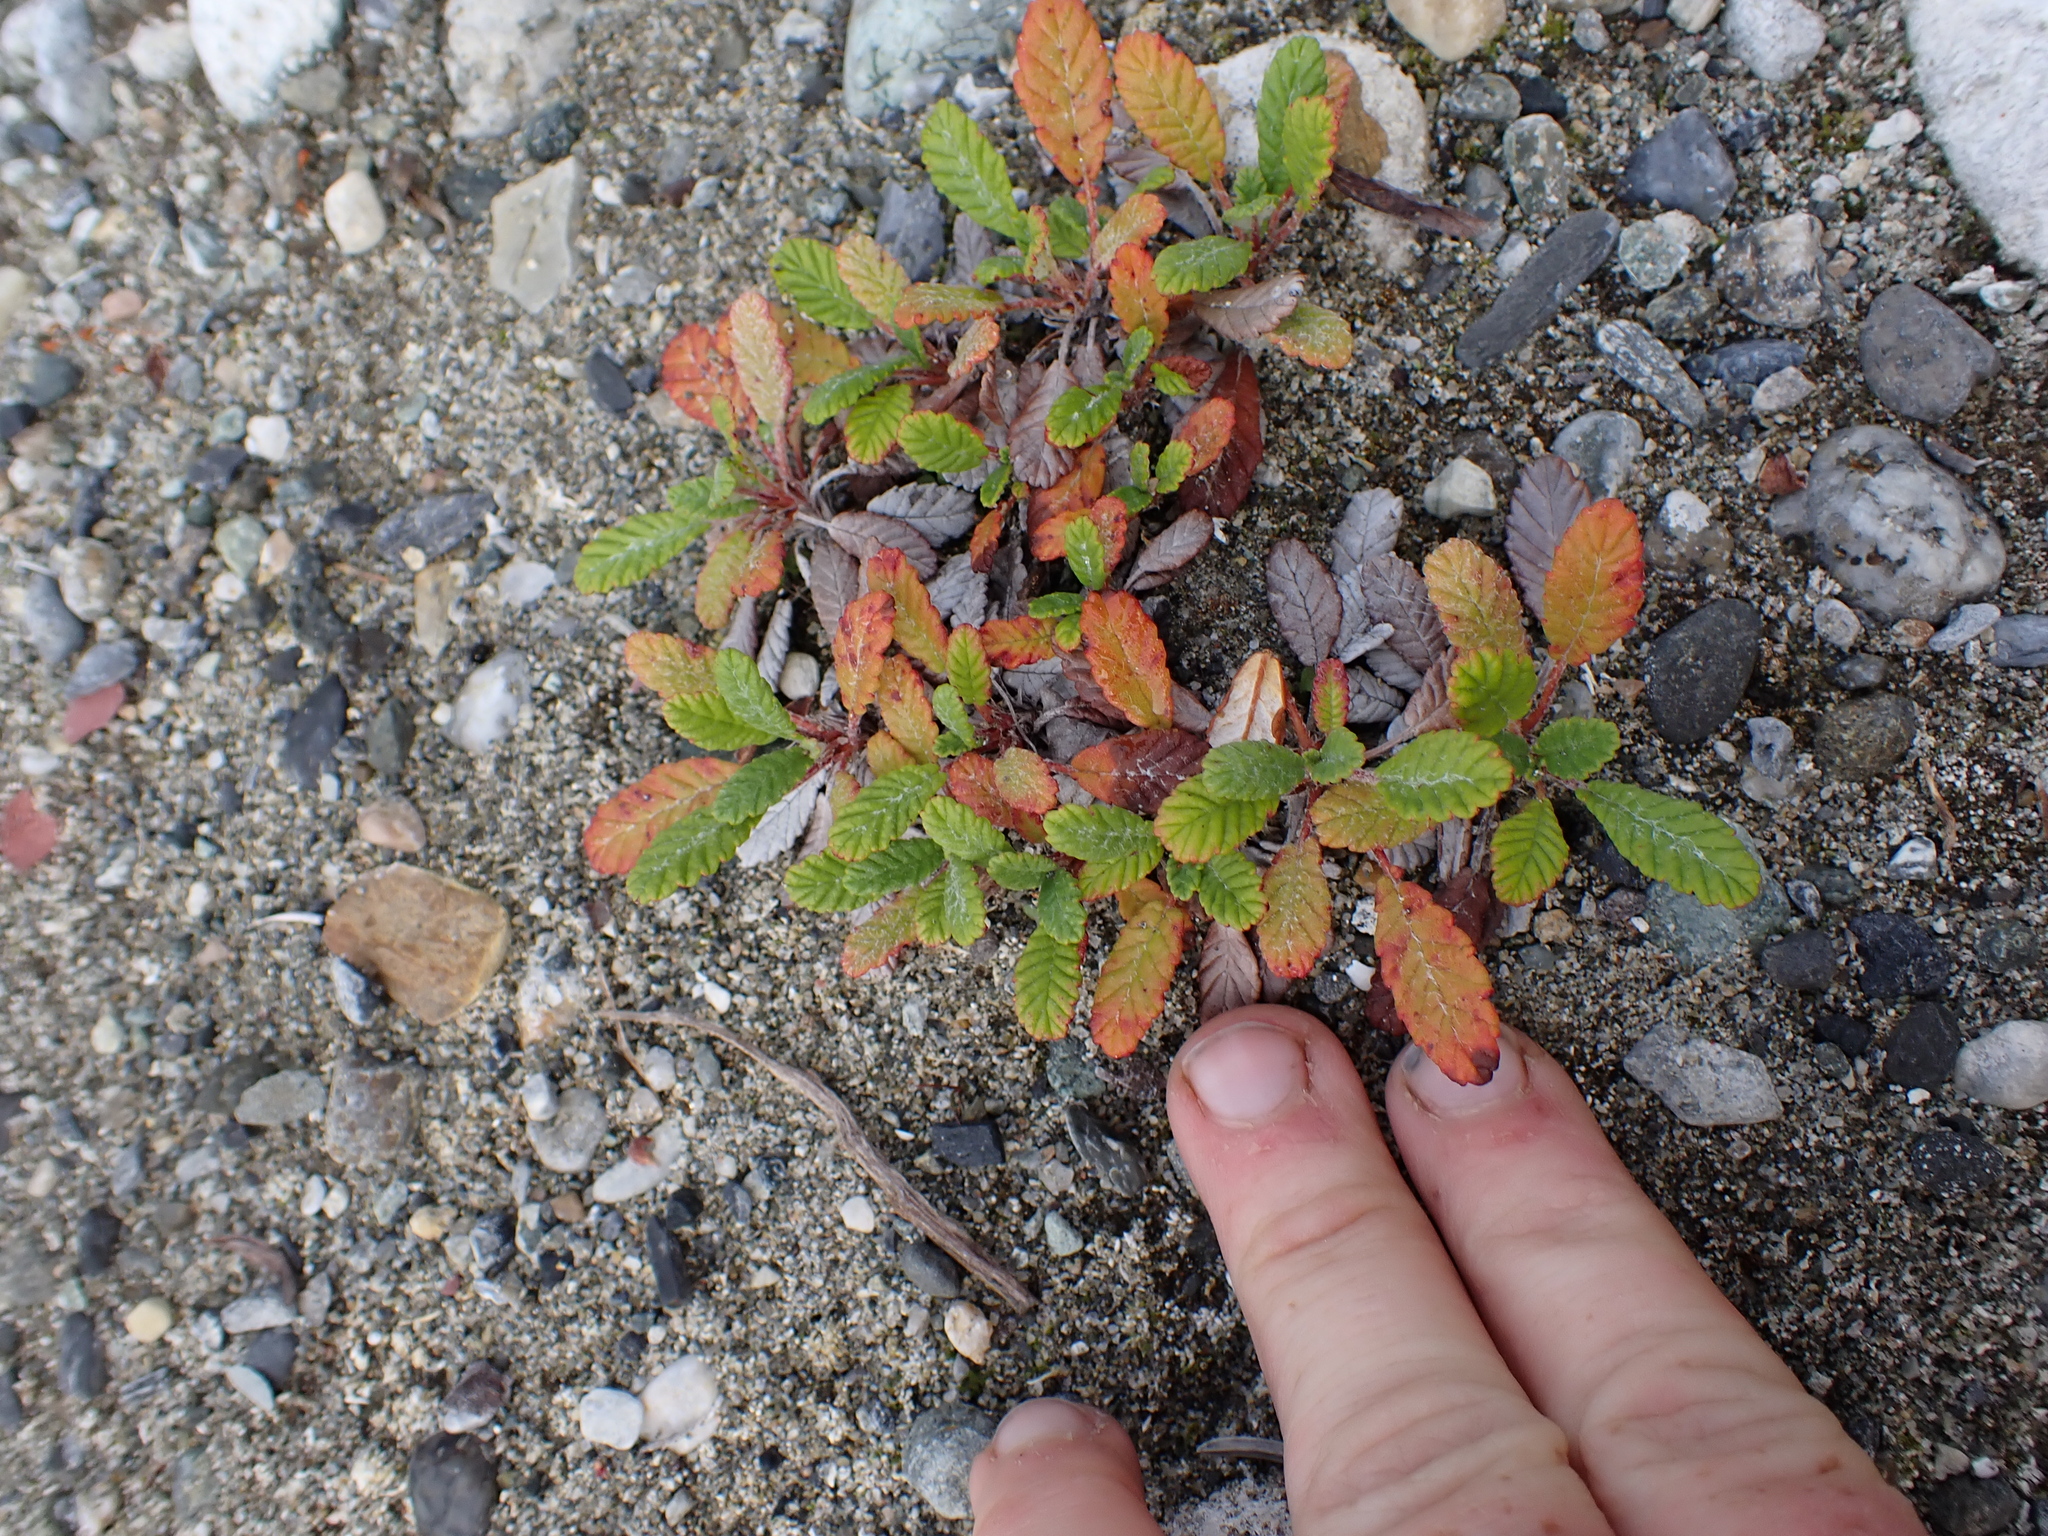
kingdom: Plantae
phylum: Tracheophyta
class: Magnoliopsida
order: Rosales
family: Rosaceae
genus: Dryas
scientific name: Dryas drummondii
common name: Drummond's dryad
